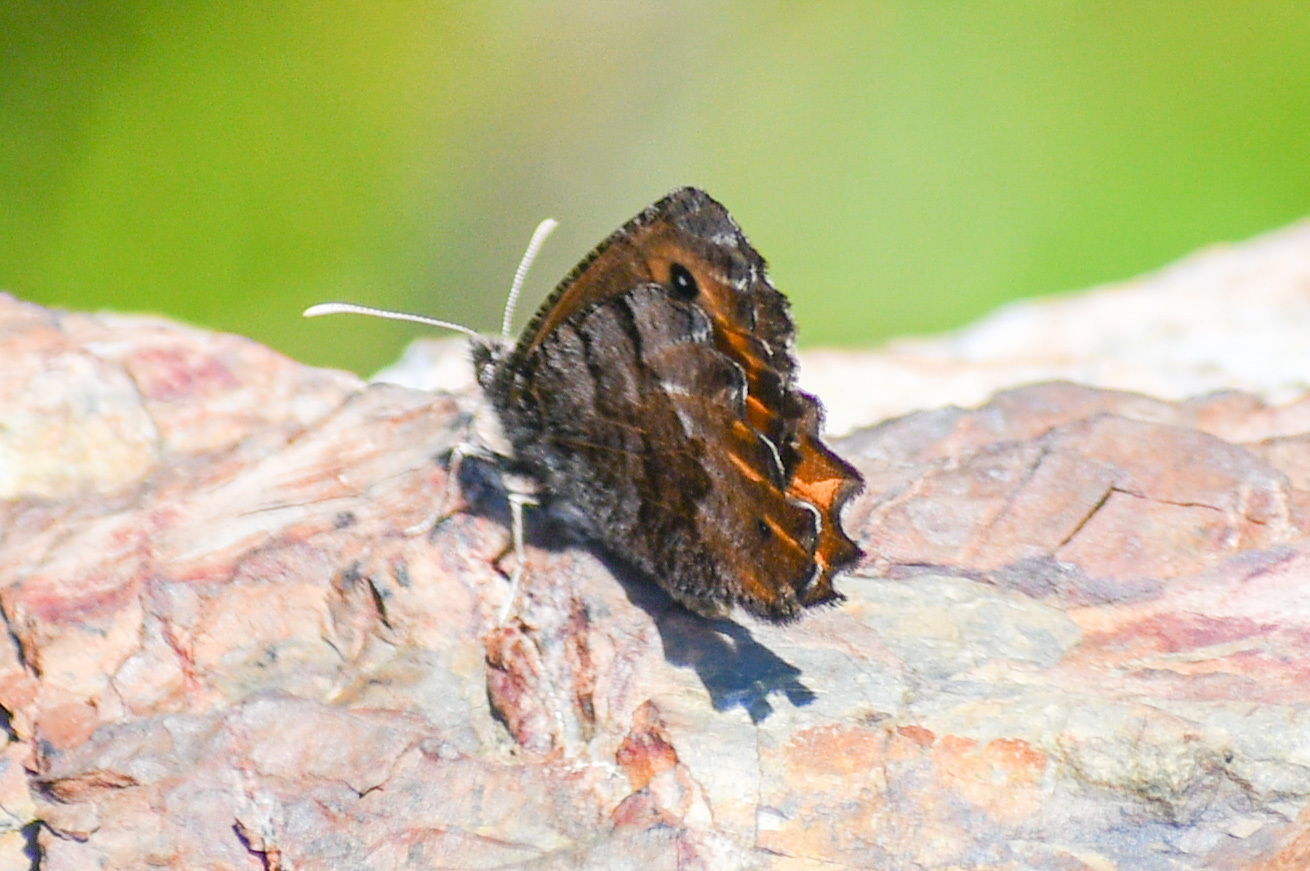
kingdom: Animalia
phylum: Arthropoda
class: Insecta
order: Lepidoptera
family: Nymphalidae
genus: Oeneis
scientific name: Oeneis macounii
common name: Macoun's arctic
